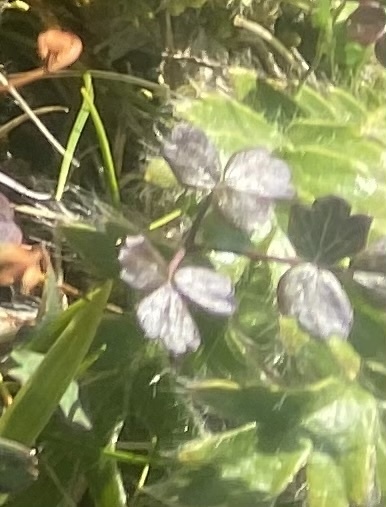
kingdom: Plantae
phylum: Tracheophyta
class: Magnoliopsida
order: Ranunculales
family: Ranunculaceae
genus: Thalictrum
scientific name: Thalictrum alpinum
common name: Alpine meadow-rue
